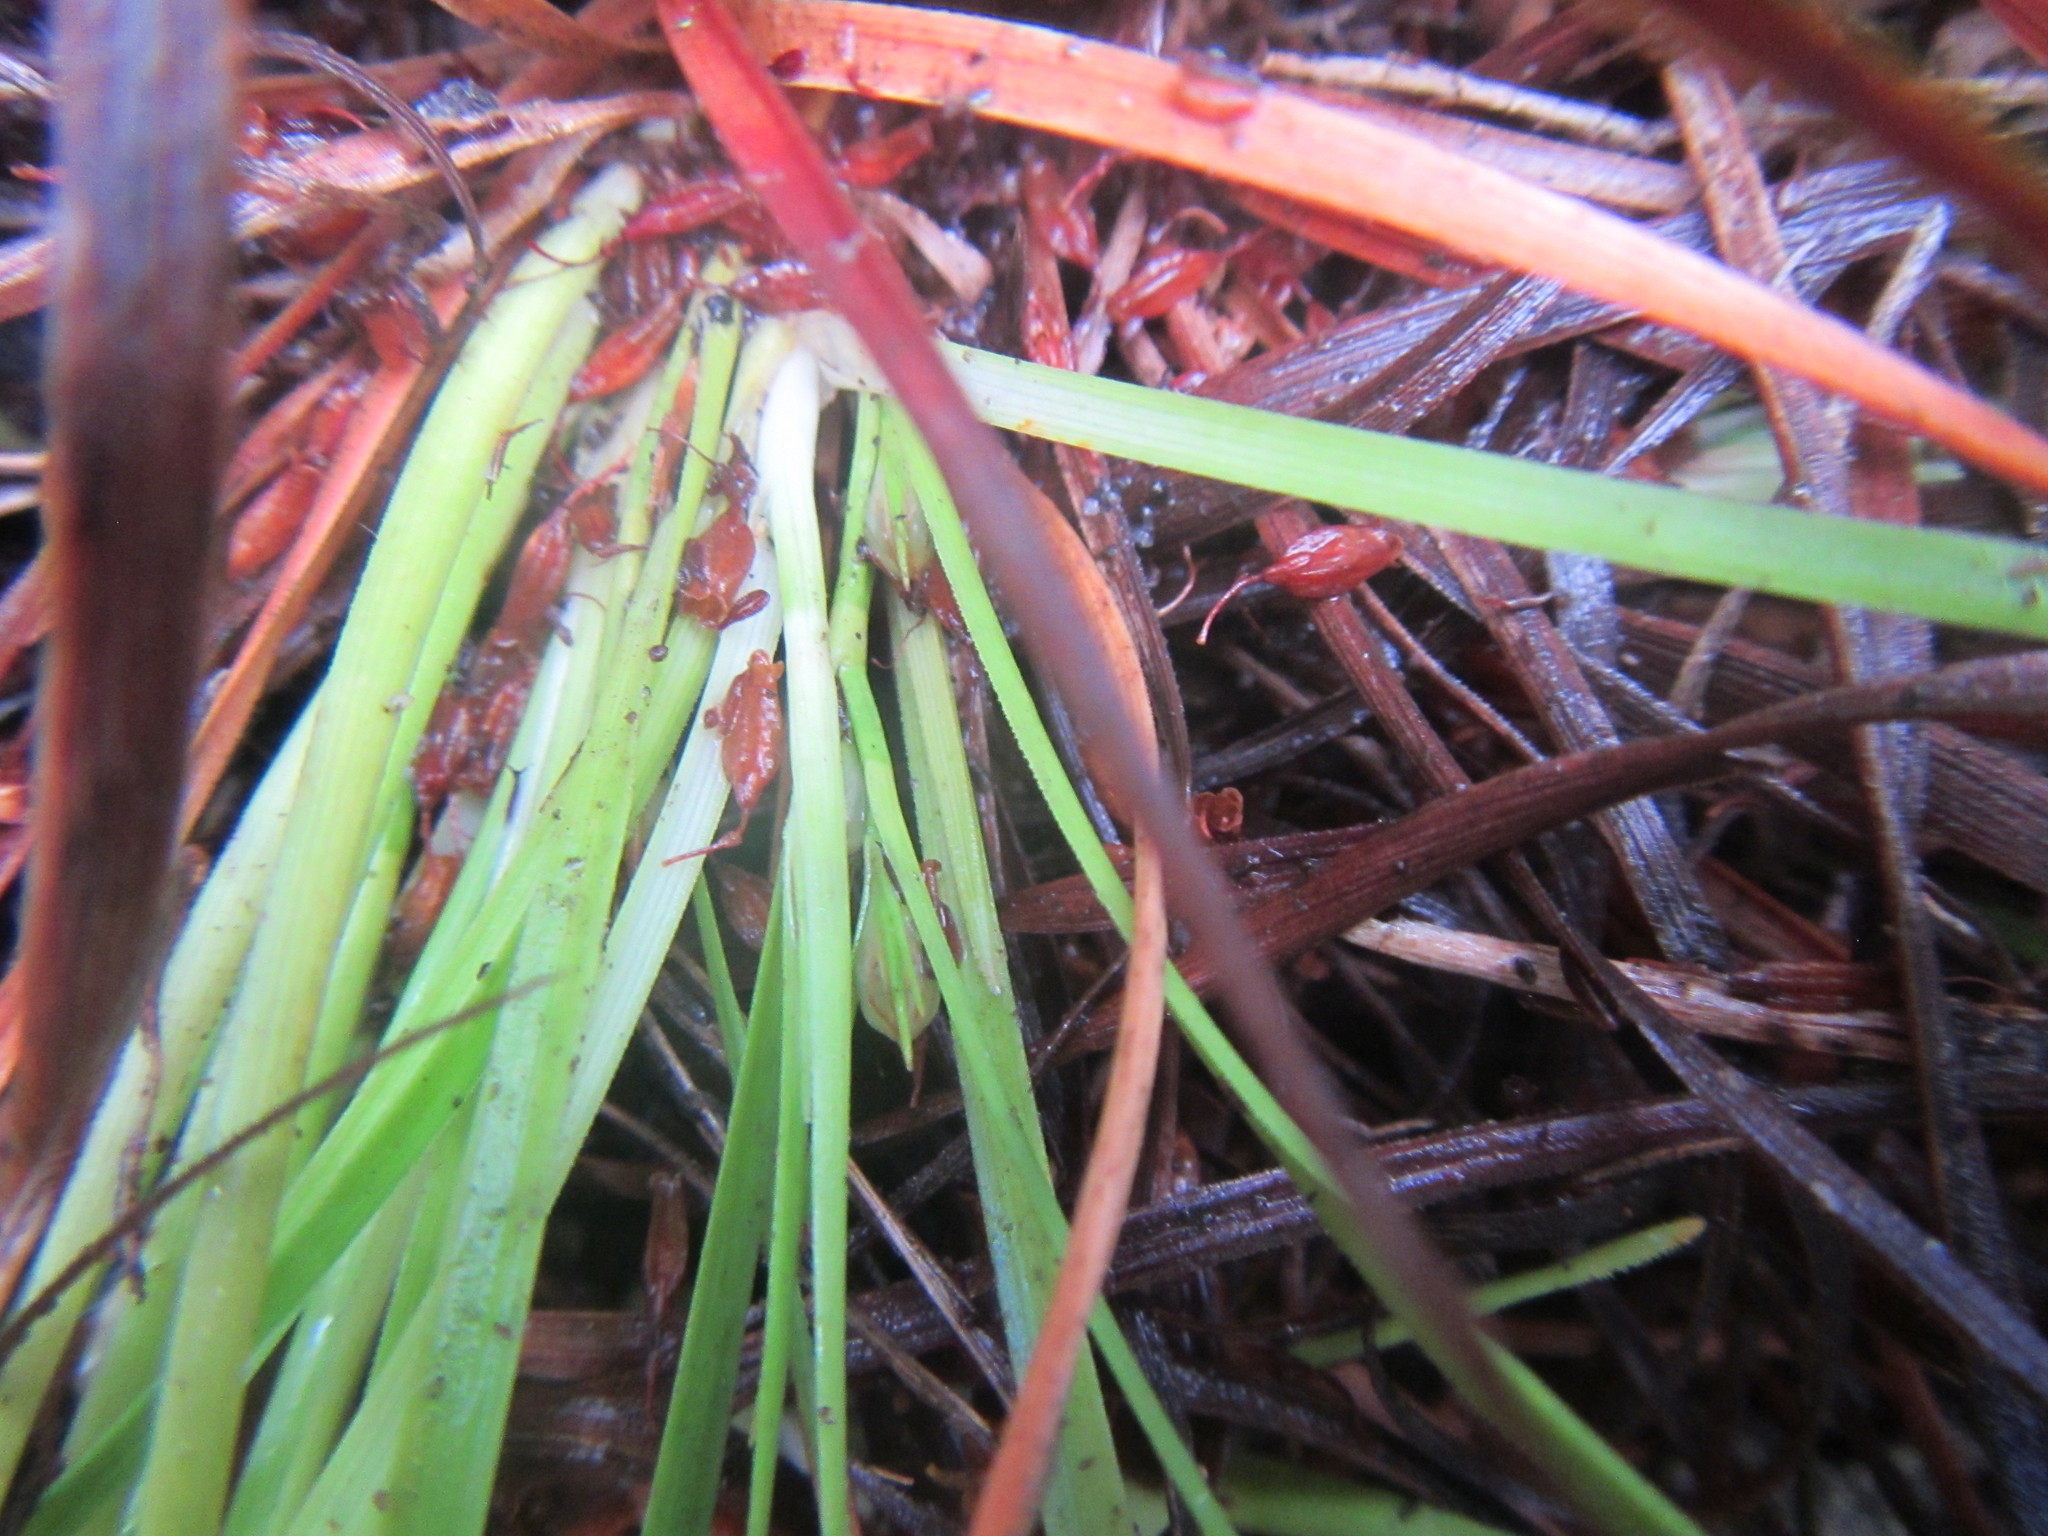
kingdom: Plantae
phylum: Tracheophyta
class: Liliopsida
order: Poales
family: Cyperaceae
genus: Capeobolus
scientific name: Capeobolus brevicaulis
